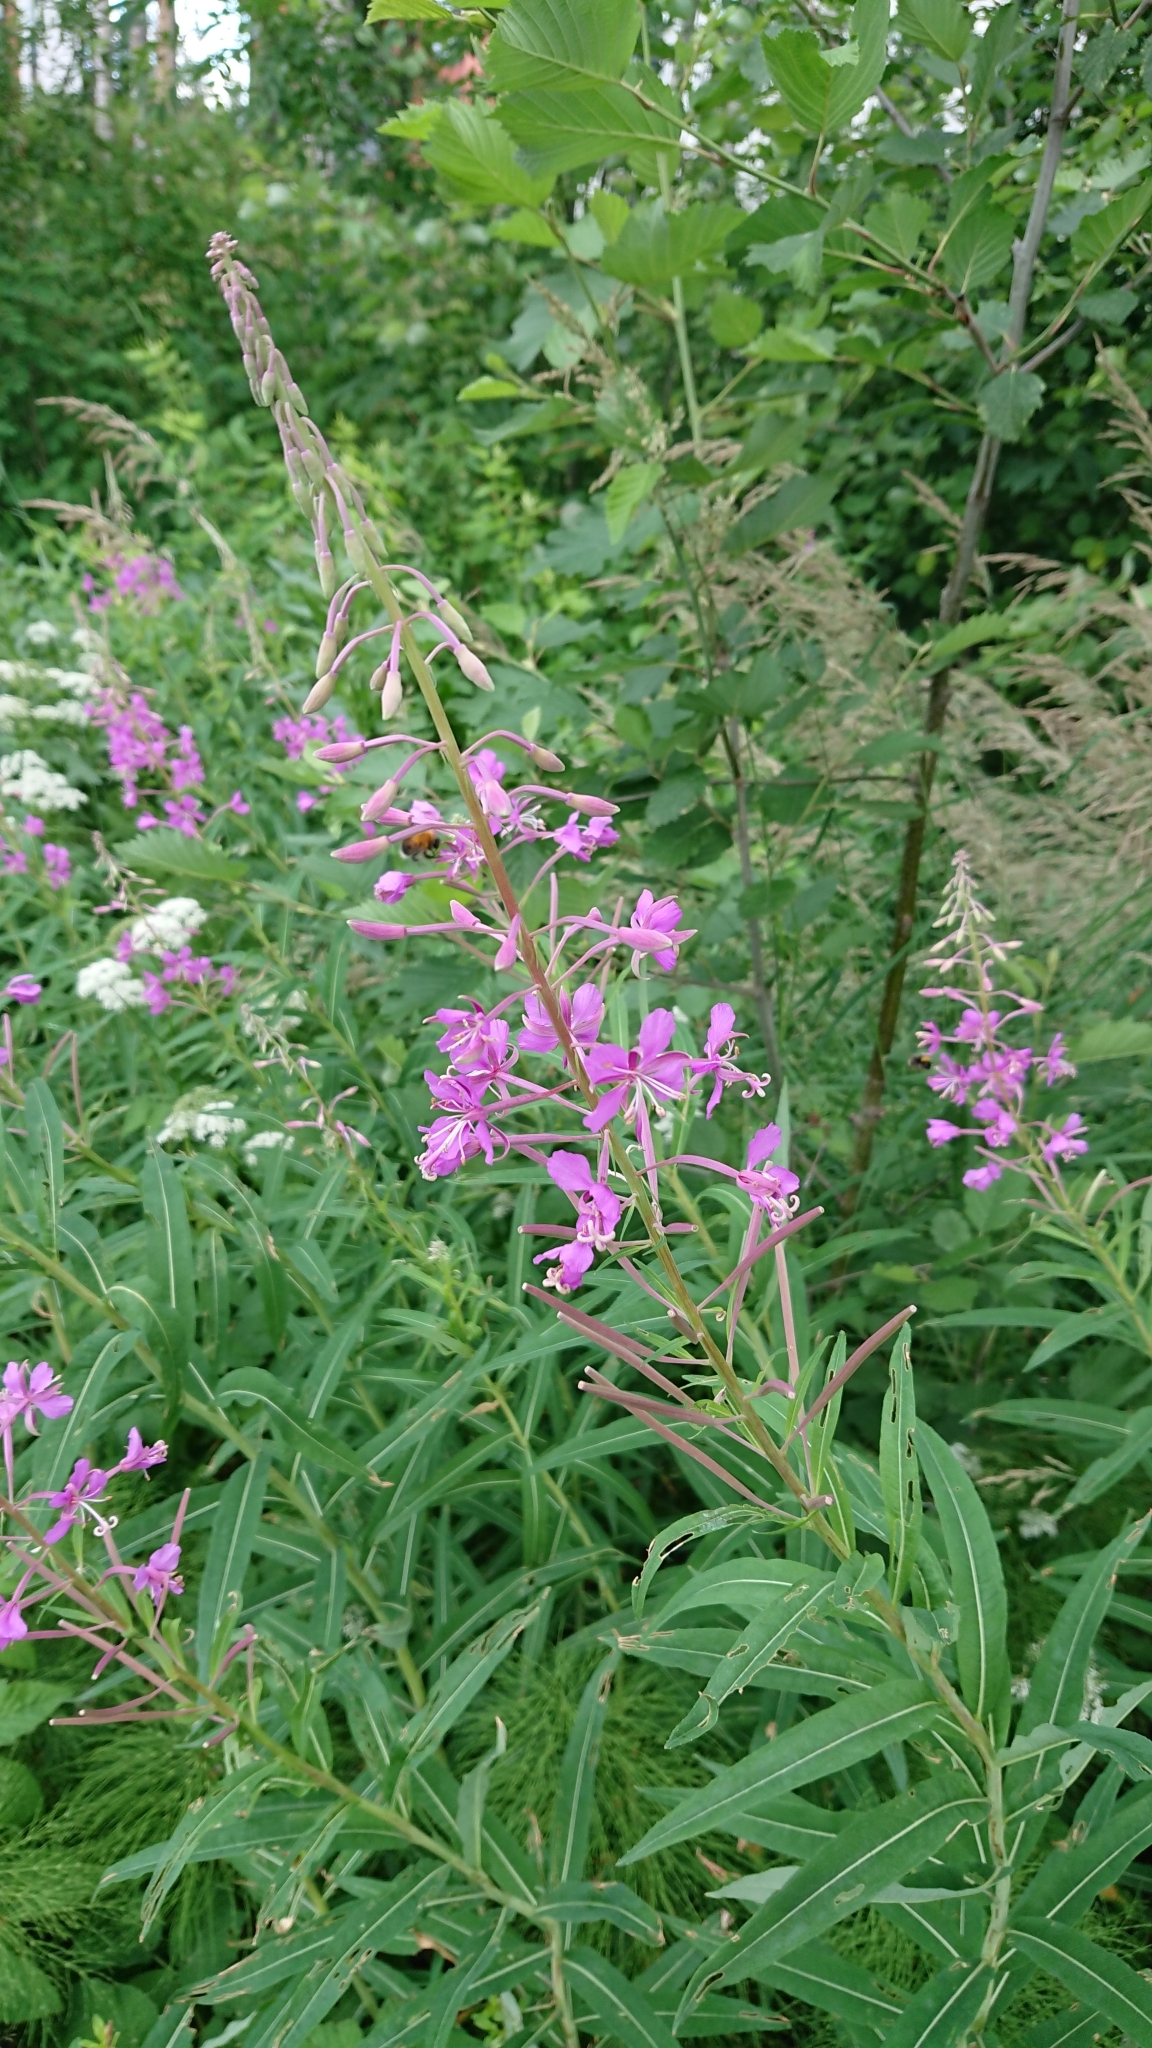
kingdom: Plantae
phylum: Tracheophyta
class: Magnoliopsida
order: Myrtales
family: Onagraceae
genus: Chamaenerion
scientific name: Chamaenerion angustifolium
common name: Fireweed
